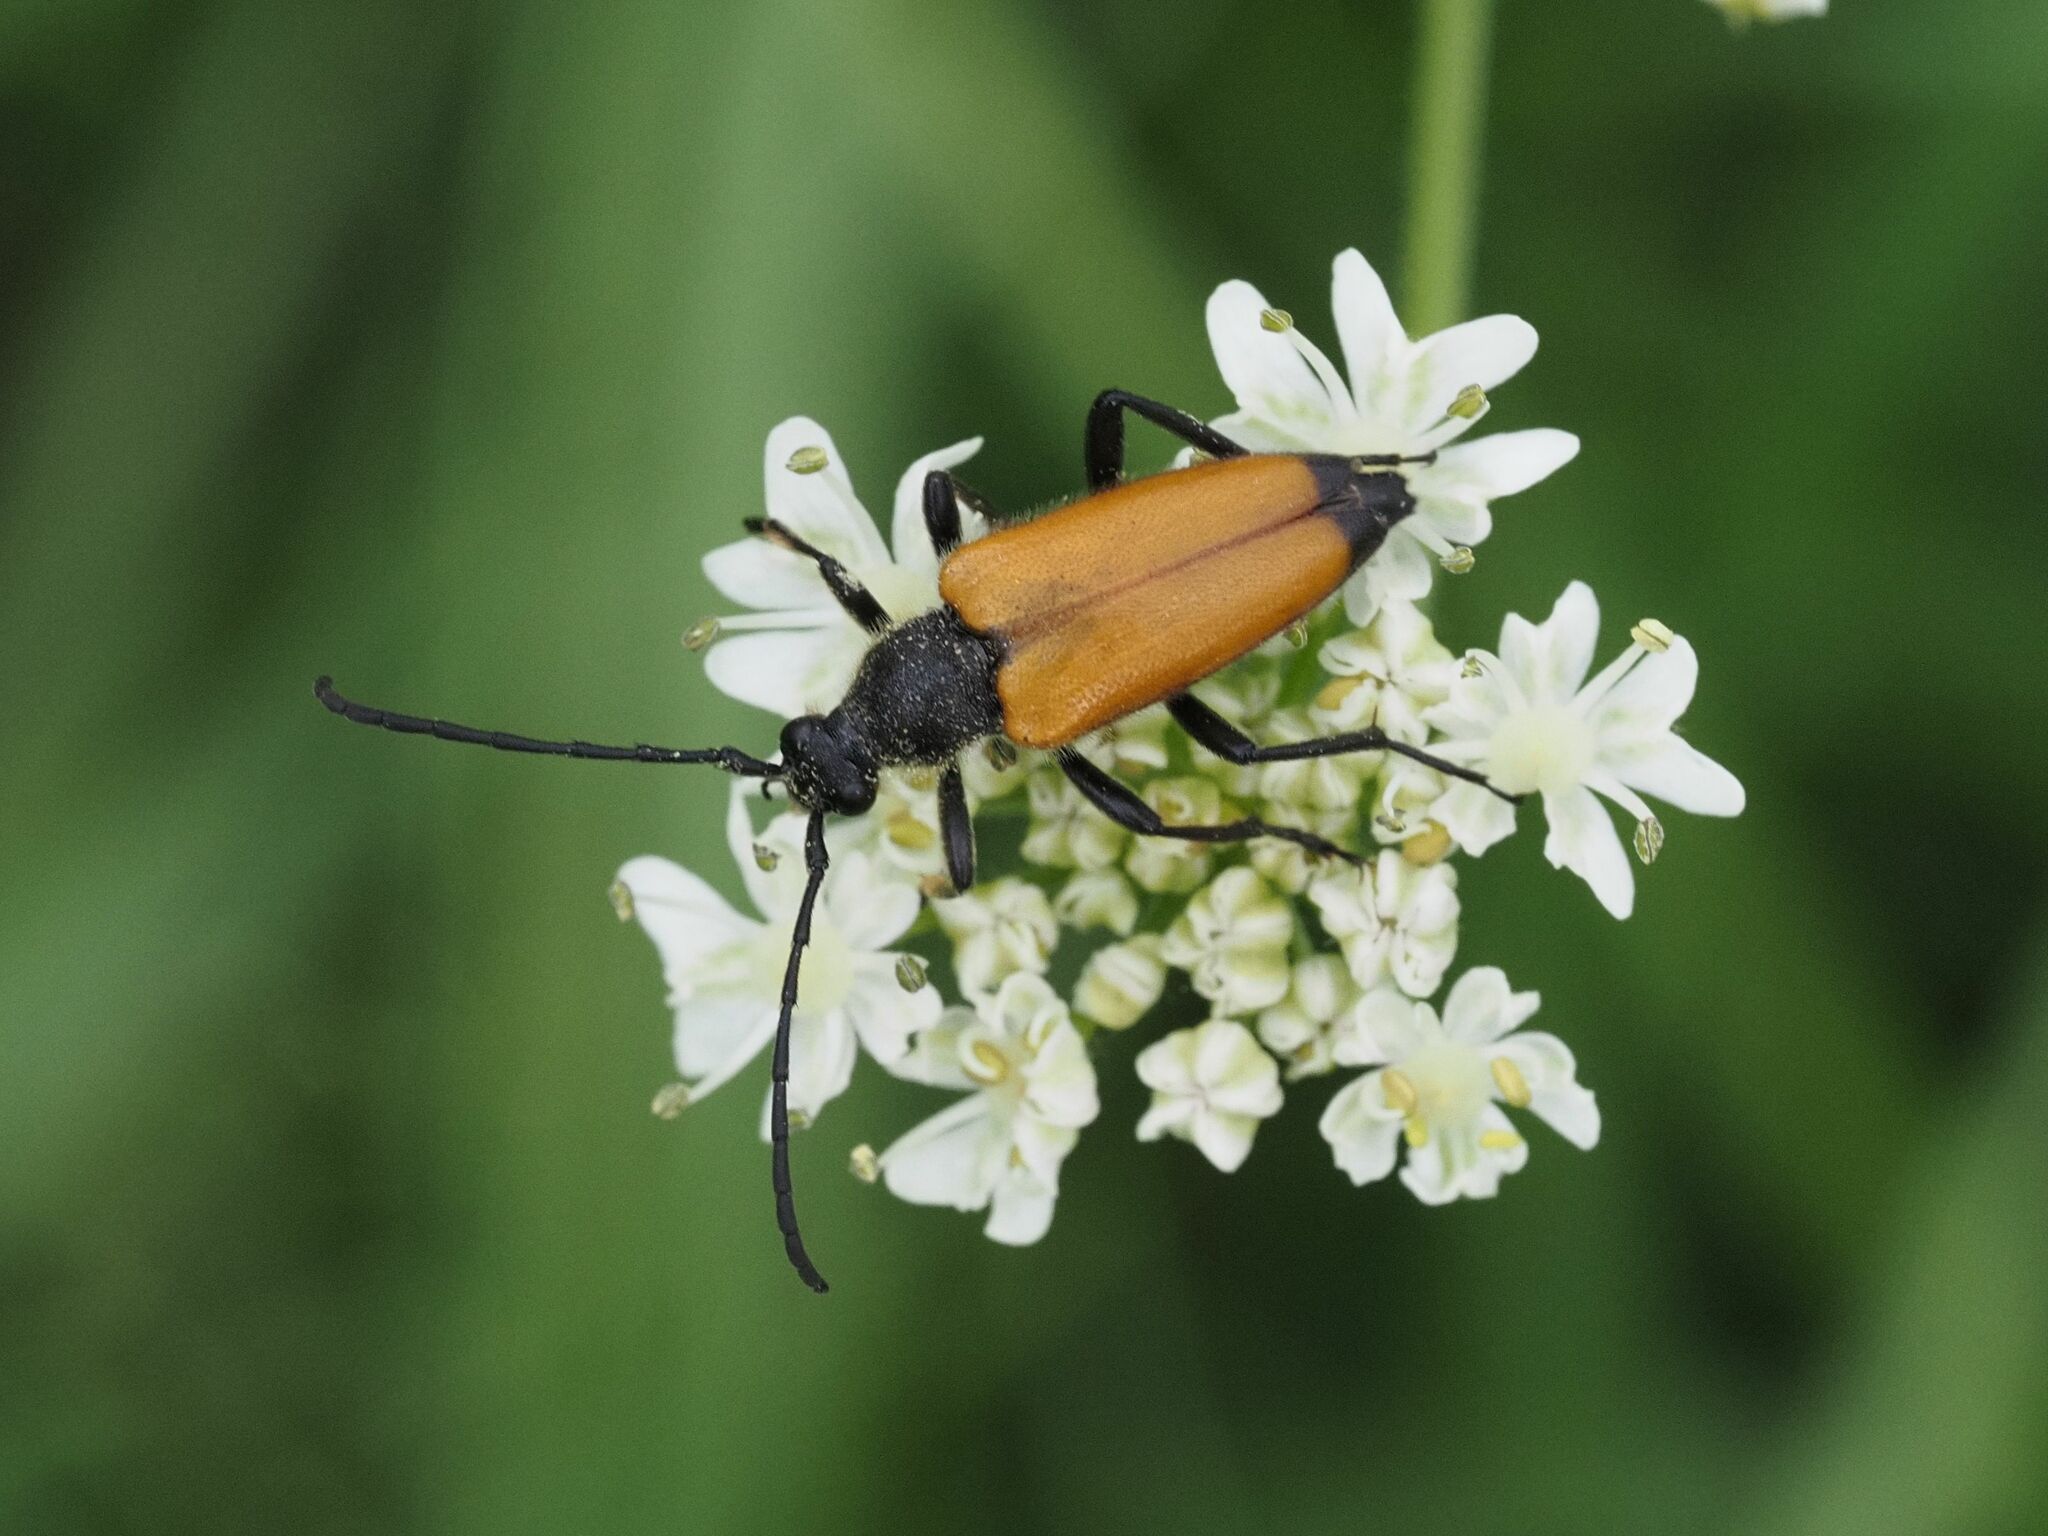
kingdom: Animalia
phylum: Arthropoda
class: Insecta
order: Coleoptera
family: Cerambycidae
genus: Paracorymbia
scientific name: Paracorymbia fulva
